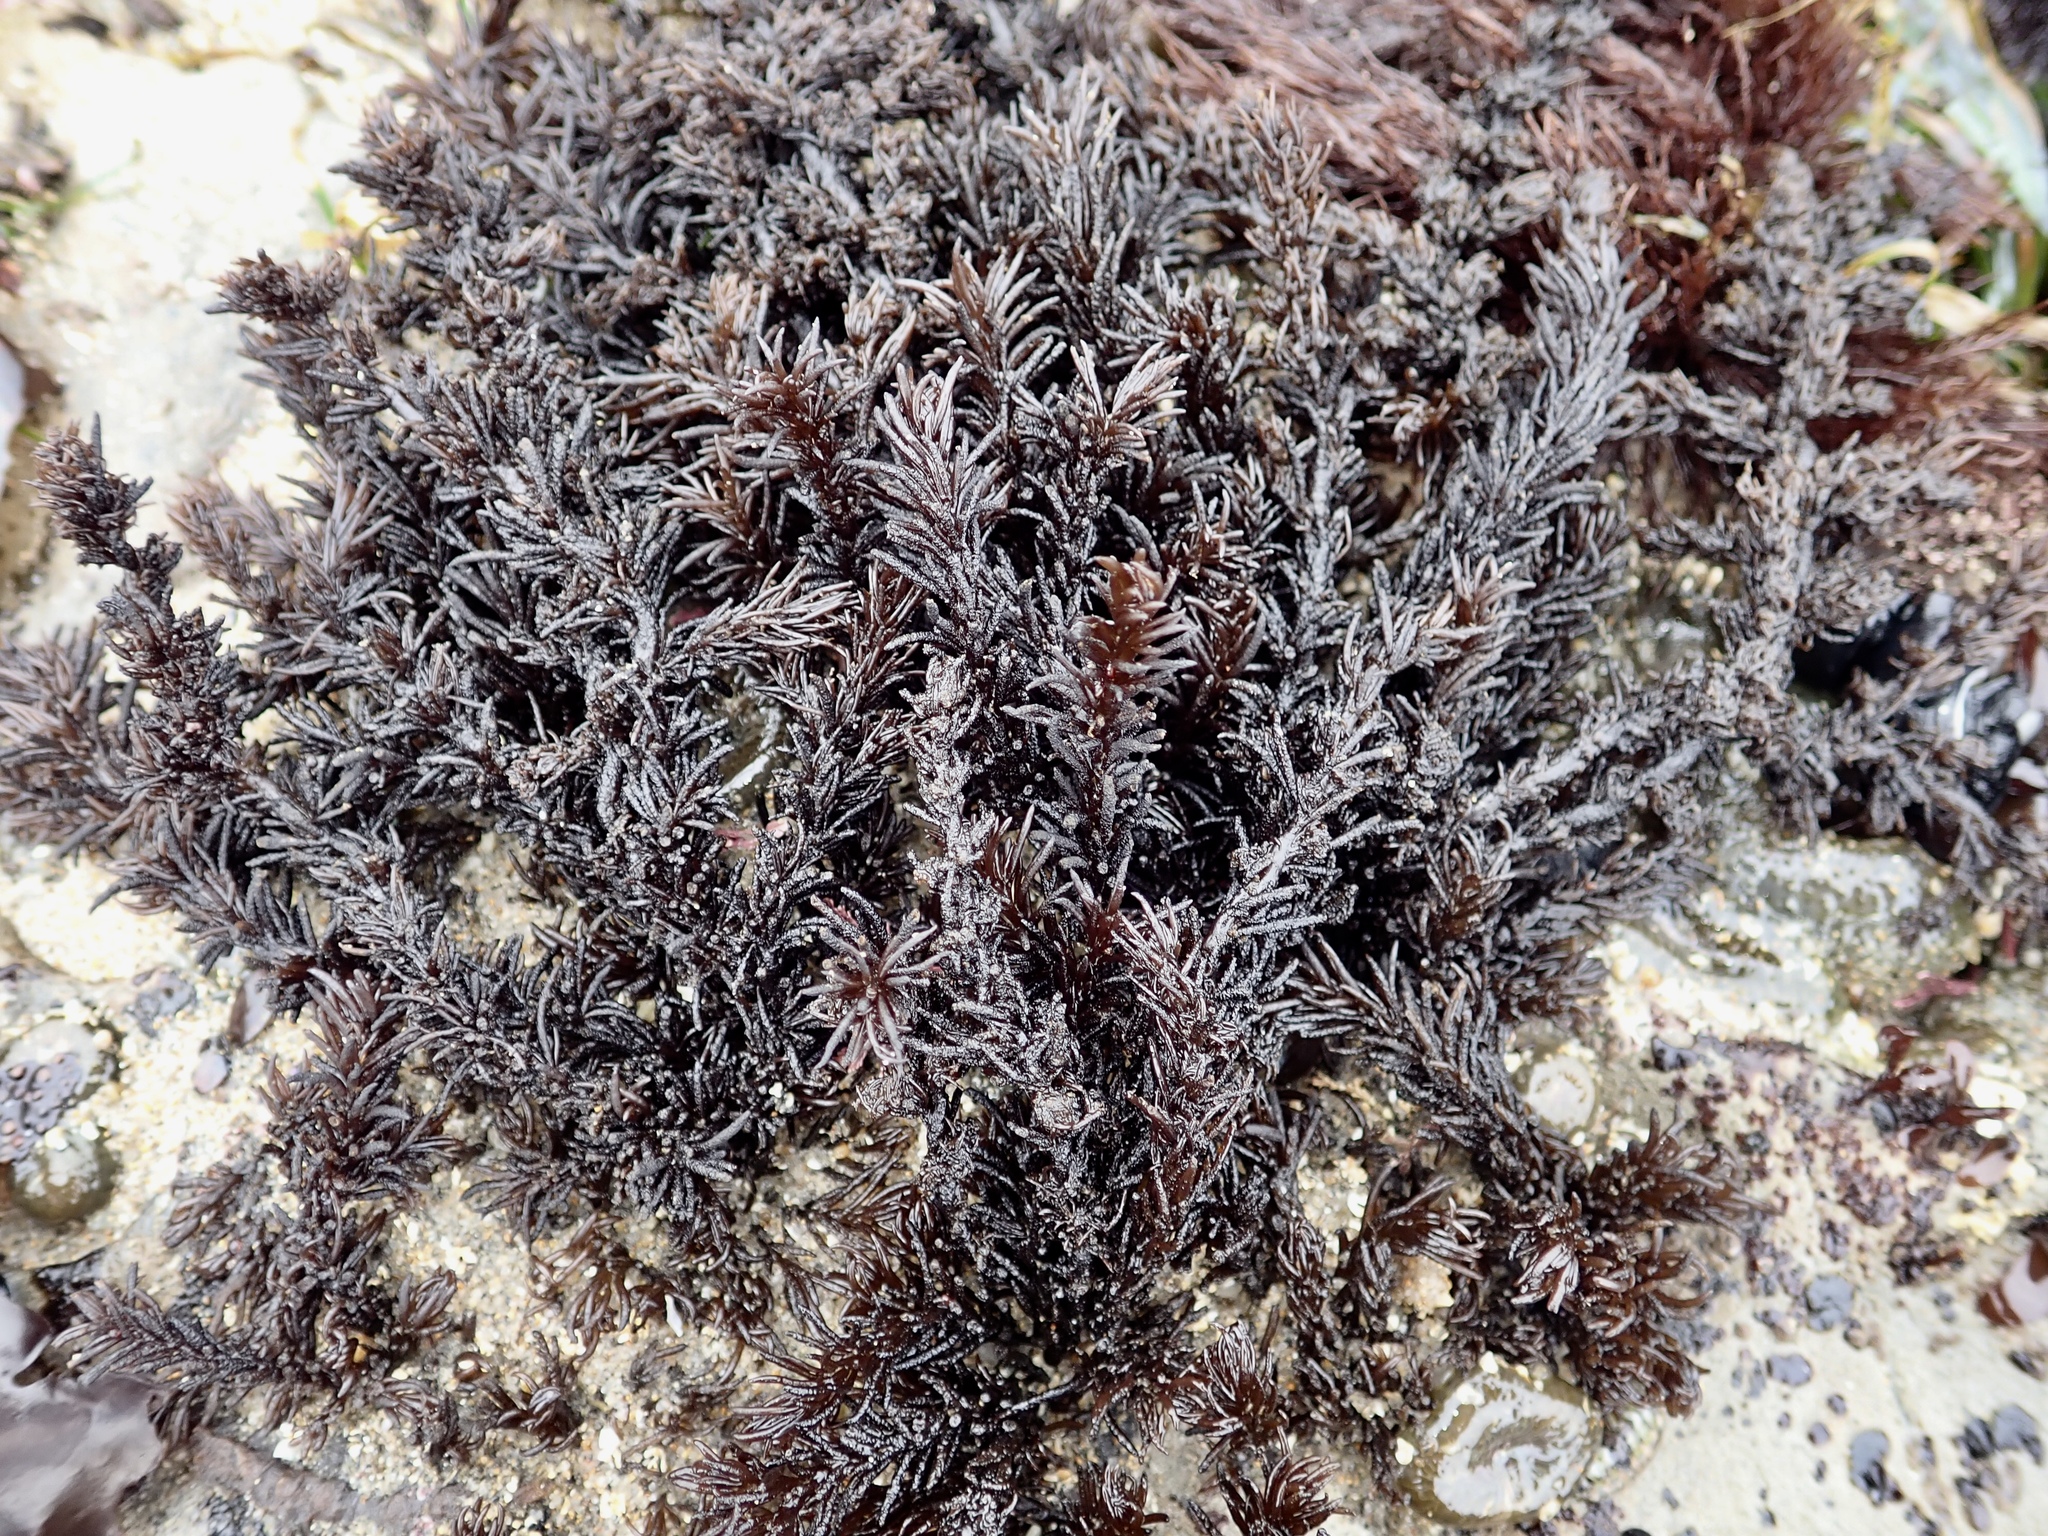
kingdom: Plantae
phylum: Rhodophyta
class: Florideophyceae
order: Ceramiales
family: Rhodomelaceae
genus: Neorhodomela
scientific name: Neorhodomela larix
